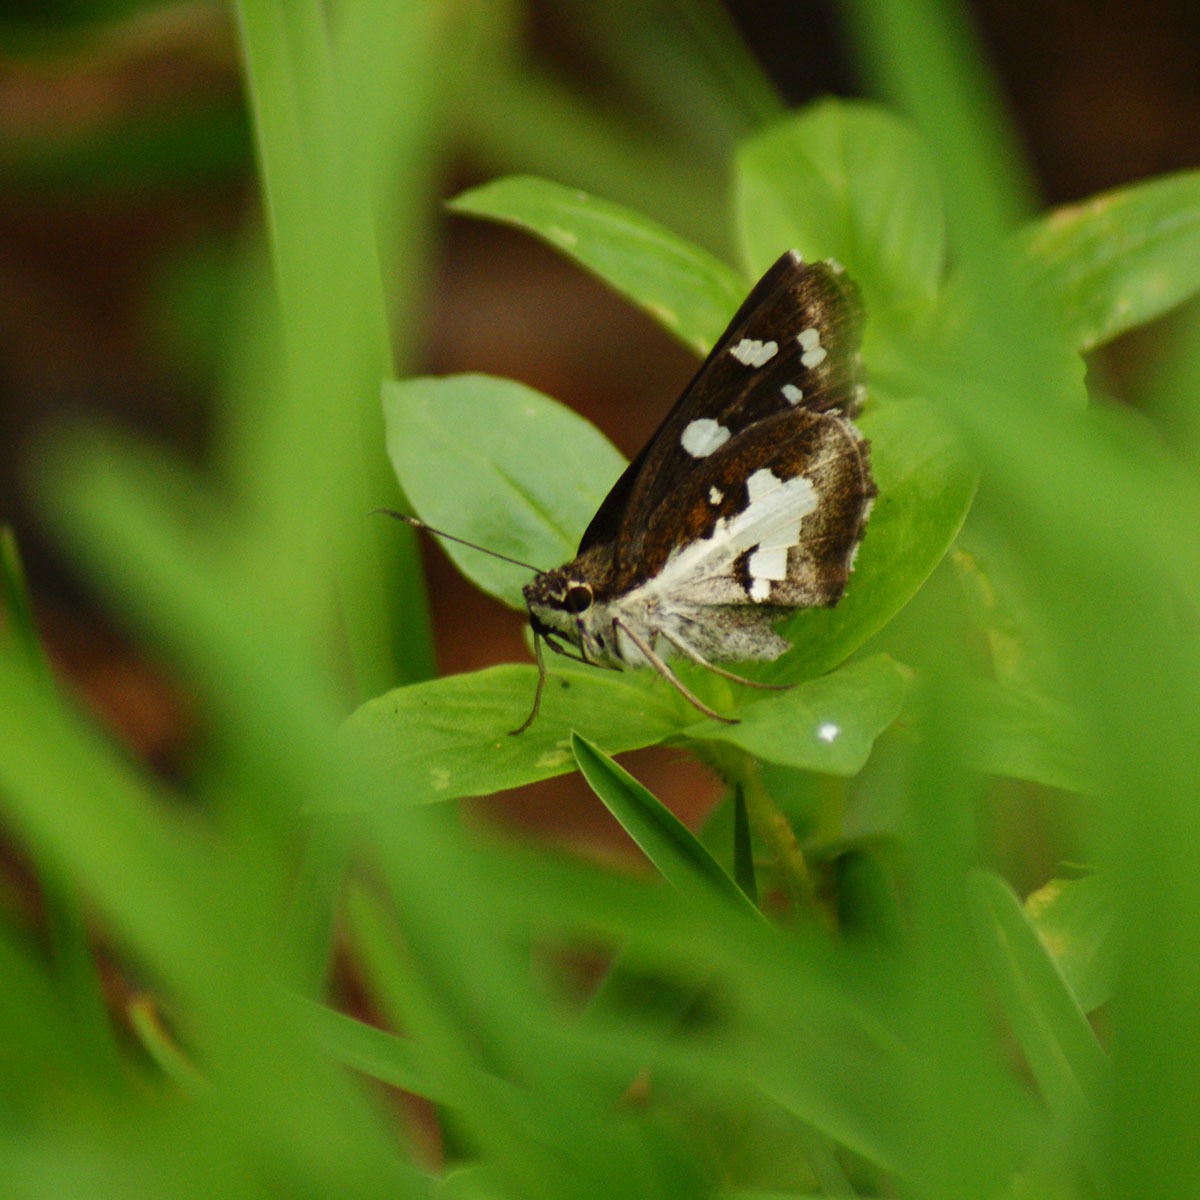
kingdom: Animalia
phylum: Arthropoda
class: Insecta
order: Lepidoptera
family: Hesperiidae
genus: Udaspes
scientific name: Udaspes folus
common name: Grass demon
